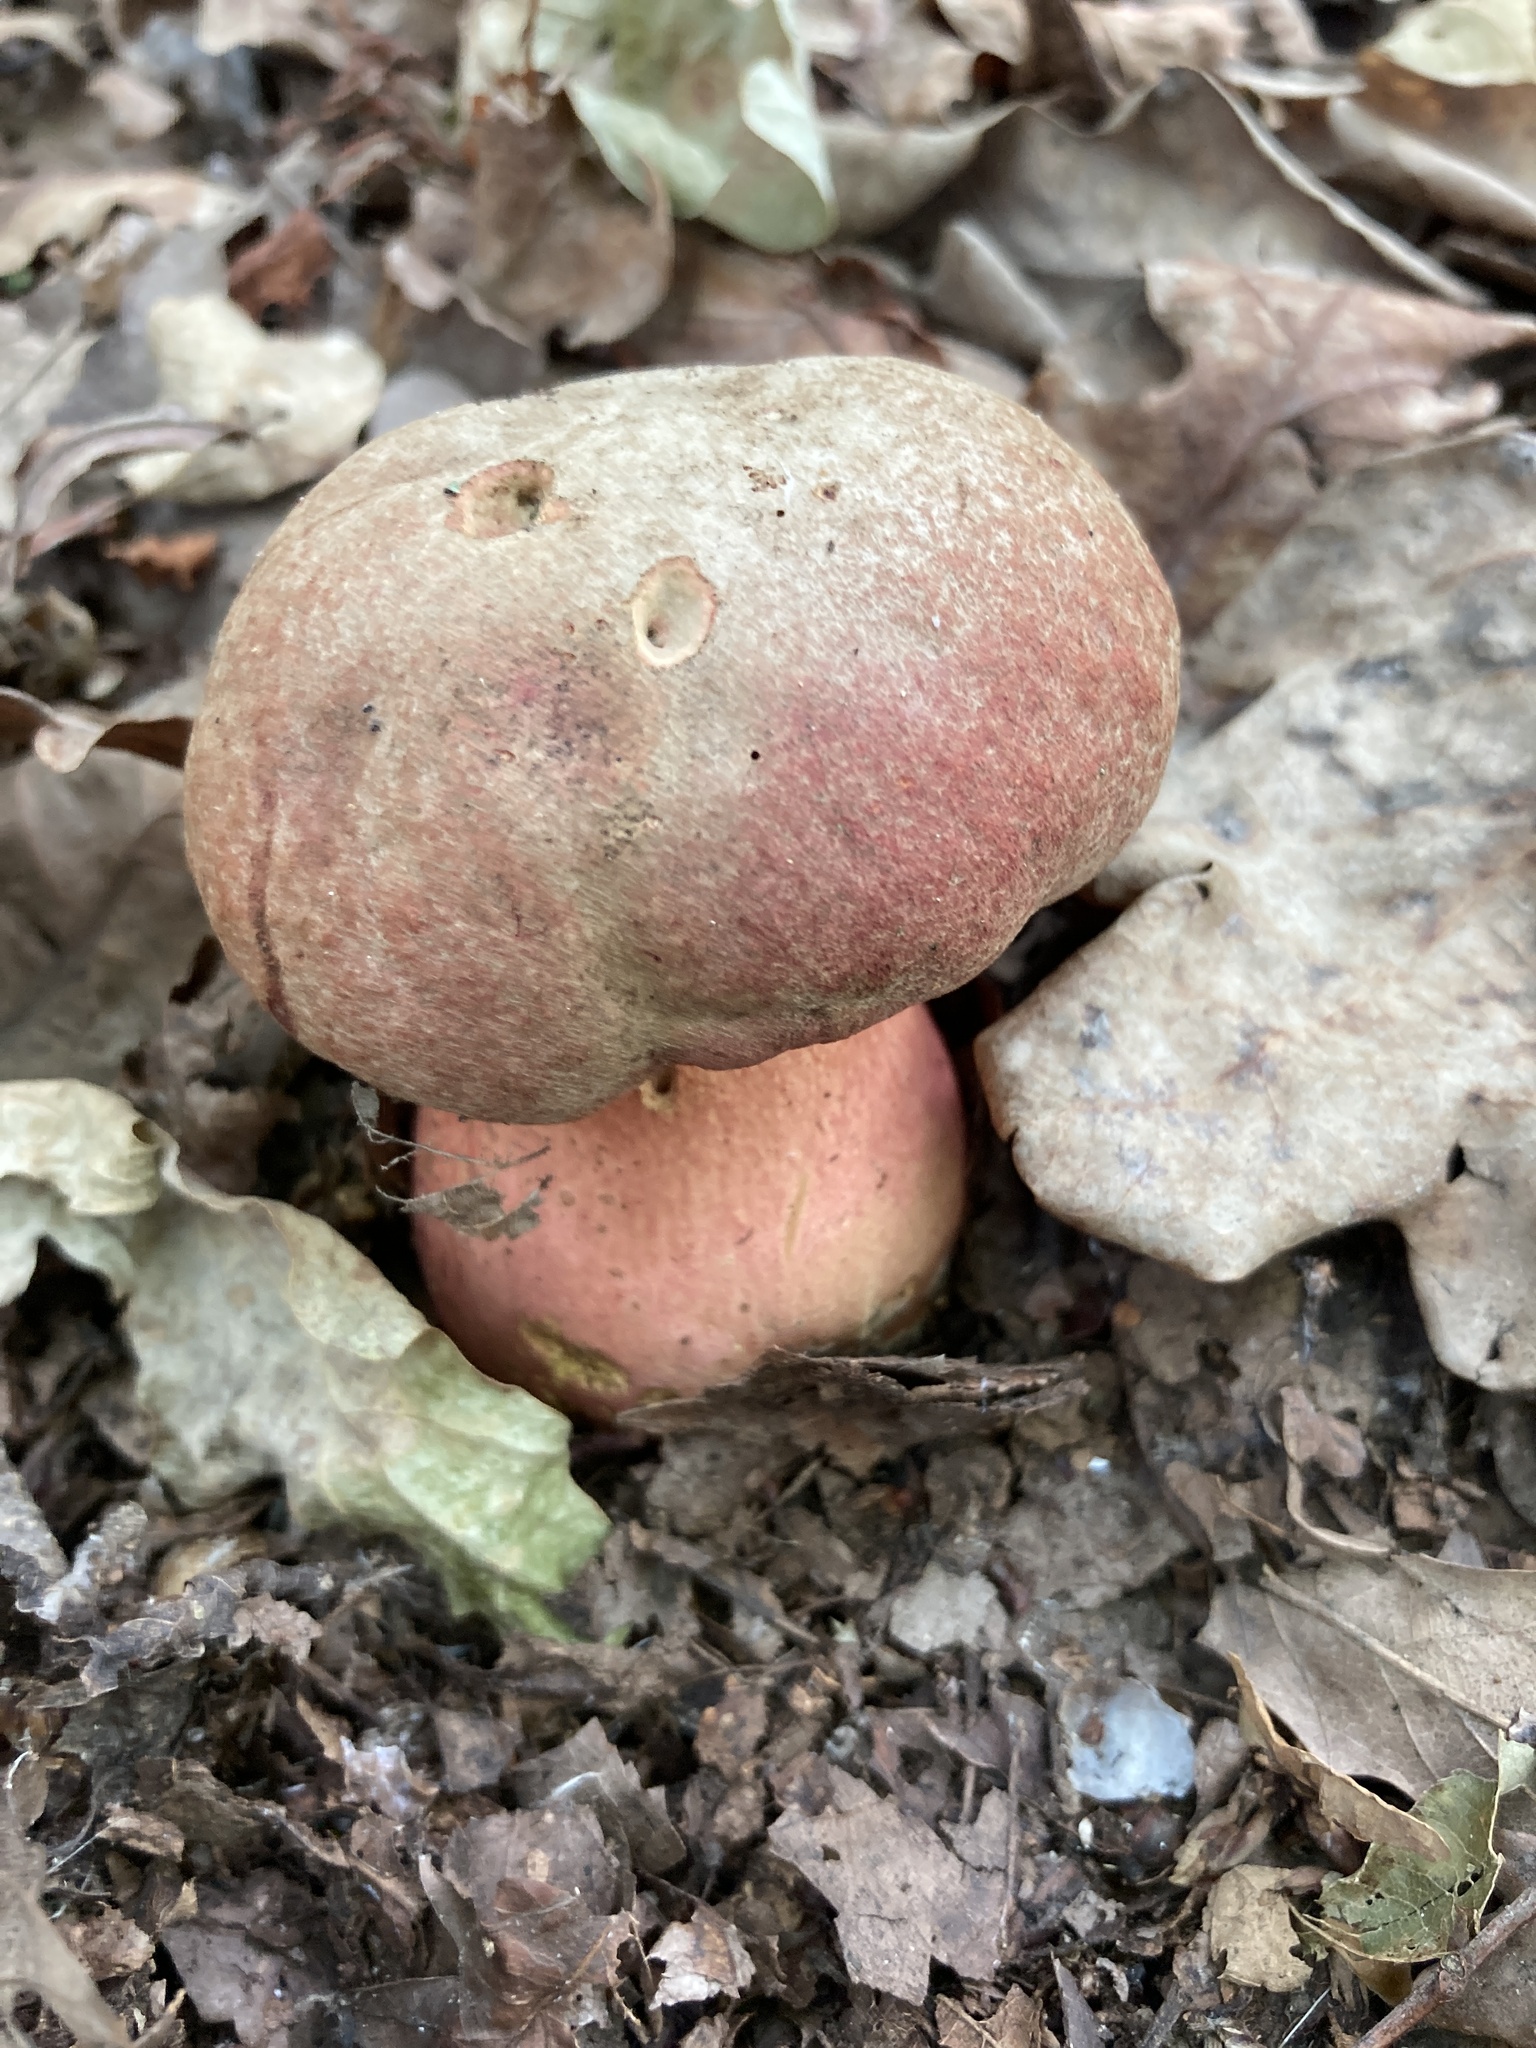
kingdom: Fungi
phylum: Basidiomycota
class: Agaricomycetes
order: Boletales
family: Boletaceae
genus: Neoboletus
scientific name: Neoboletus luridiformis
